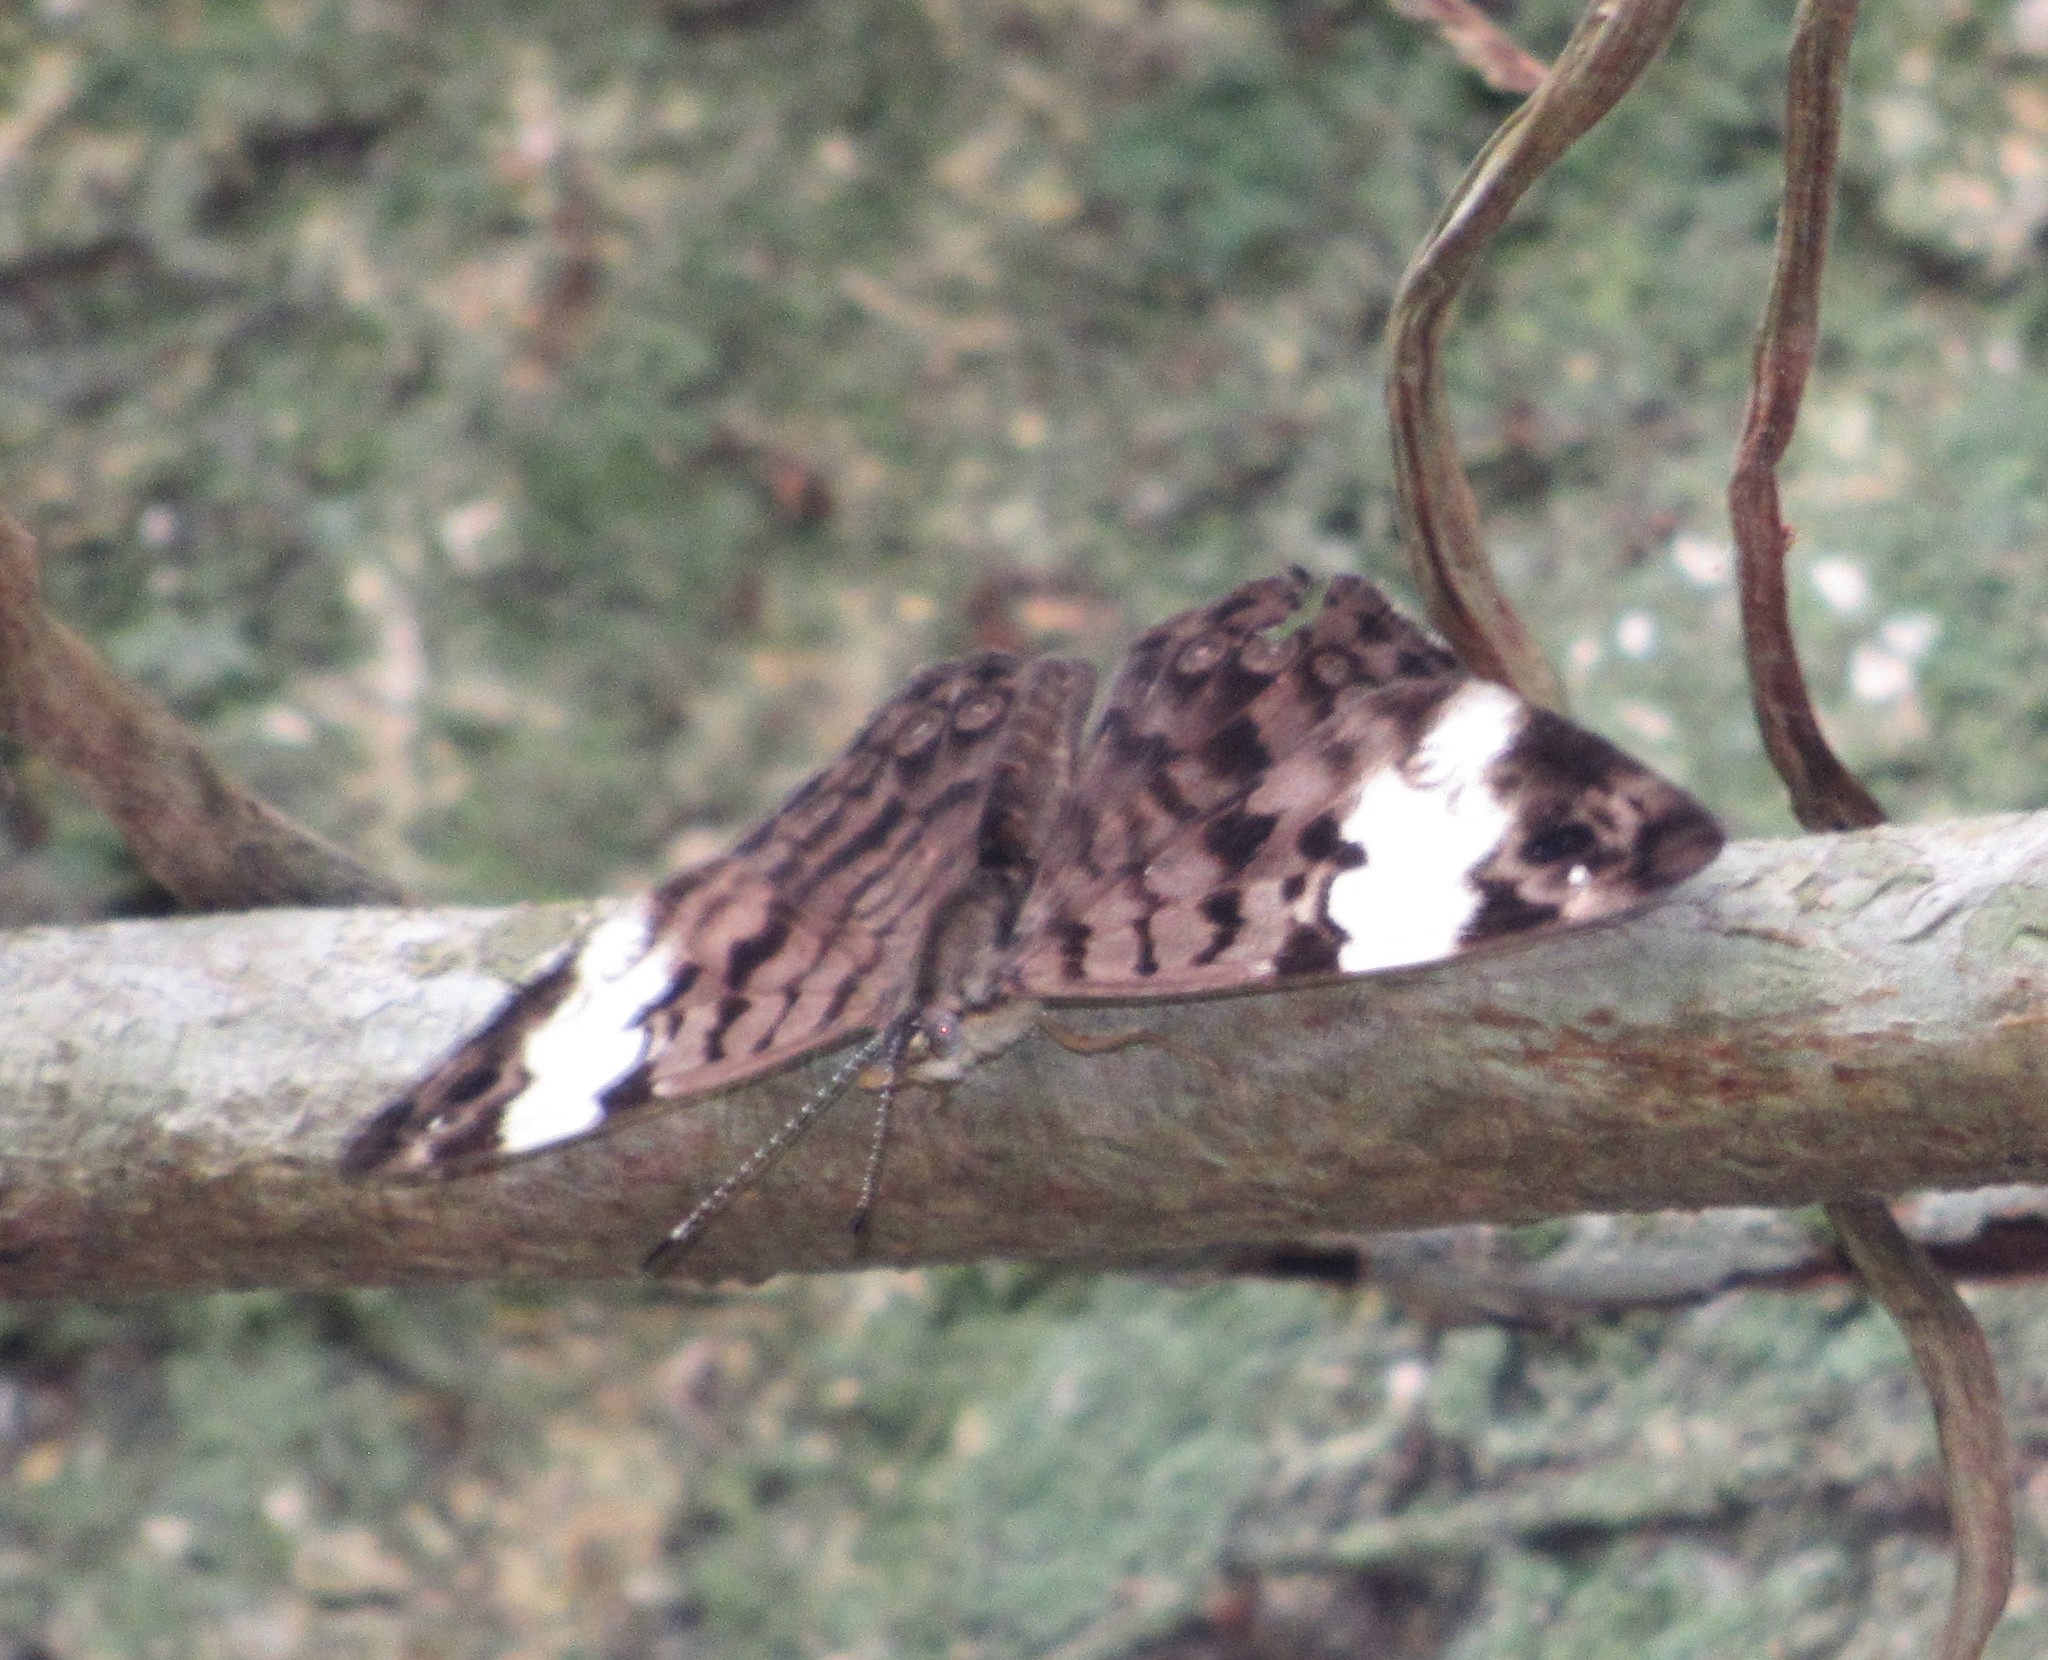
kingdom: Animalia
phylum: Arthropoda
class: Insecta
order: Lepidoptera
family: Nymphalidae
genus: Ectima
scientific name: Ectima thecla
